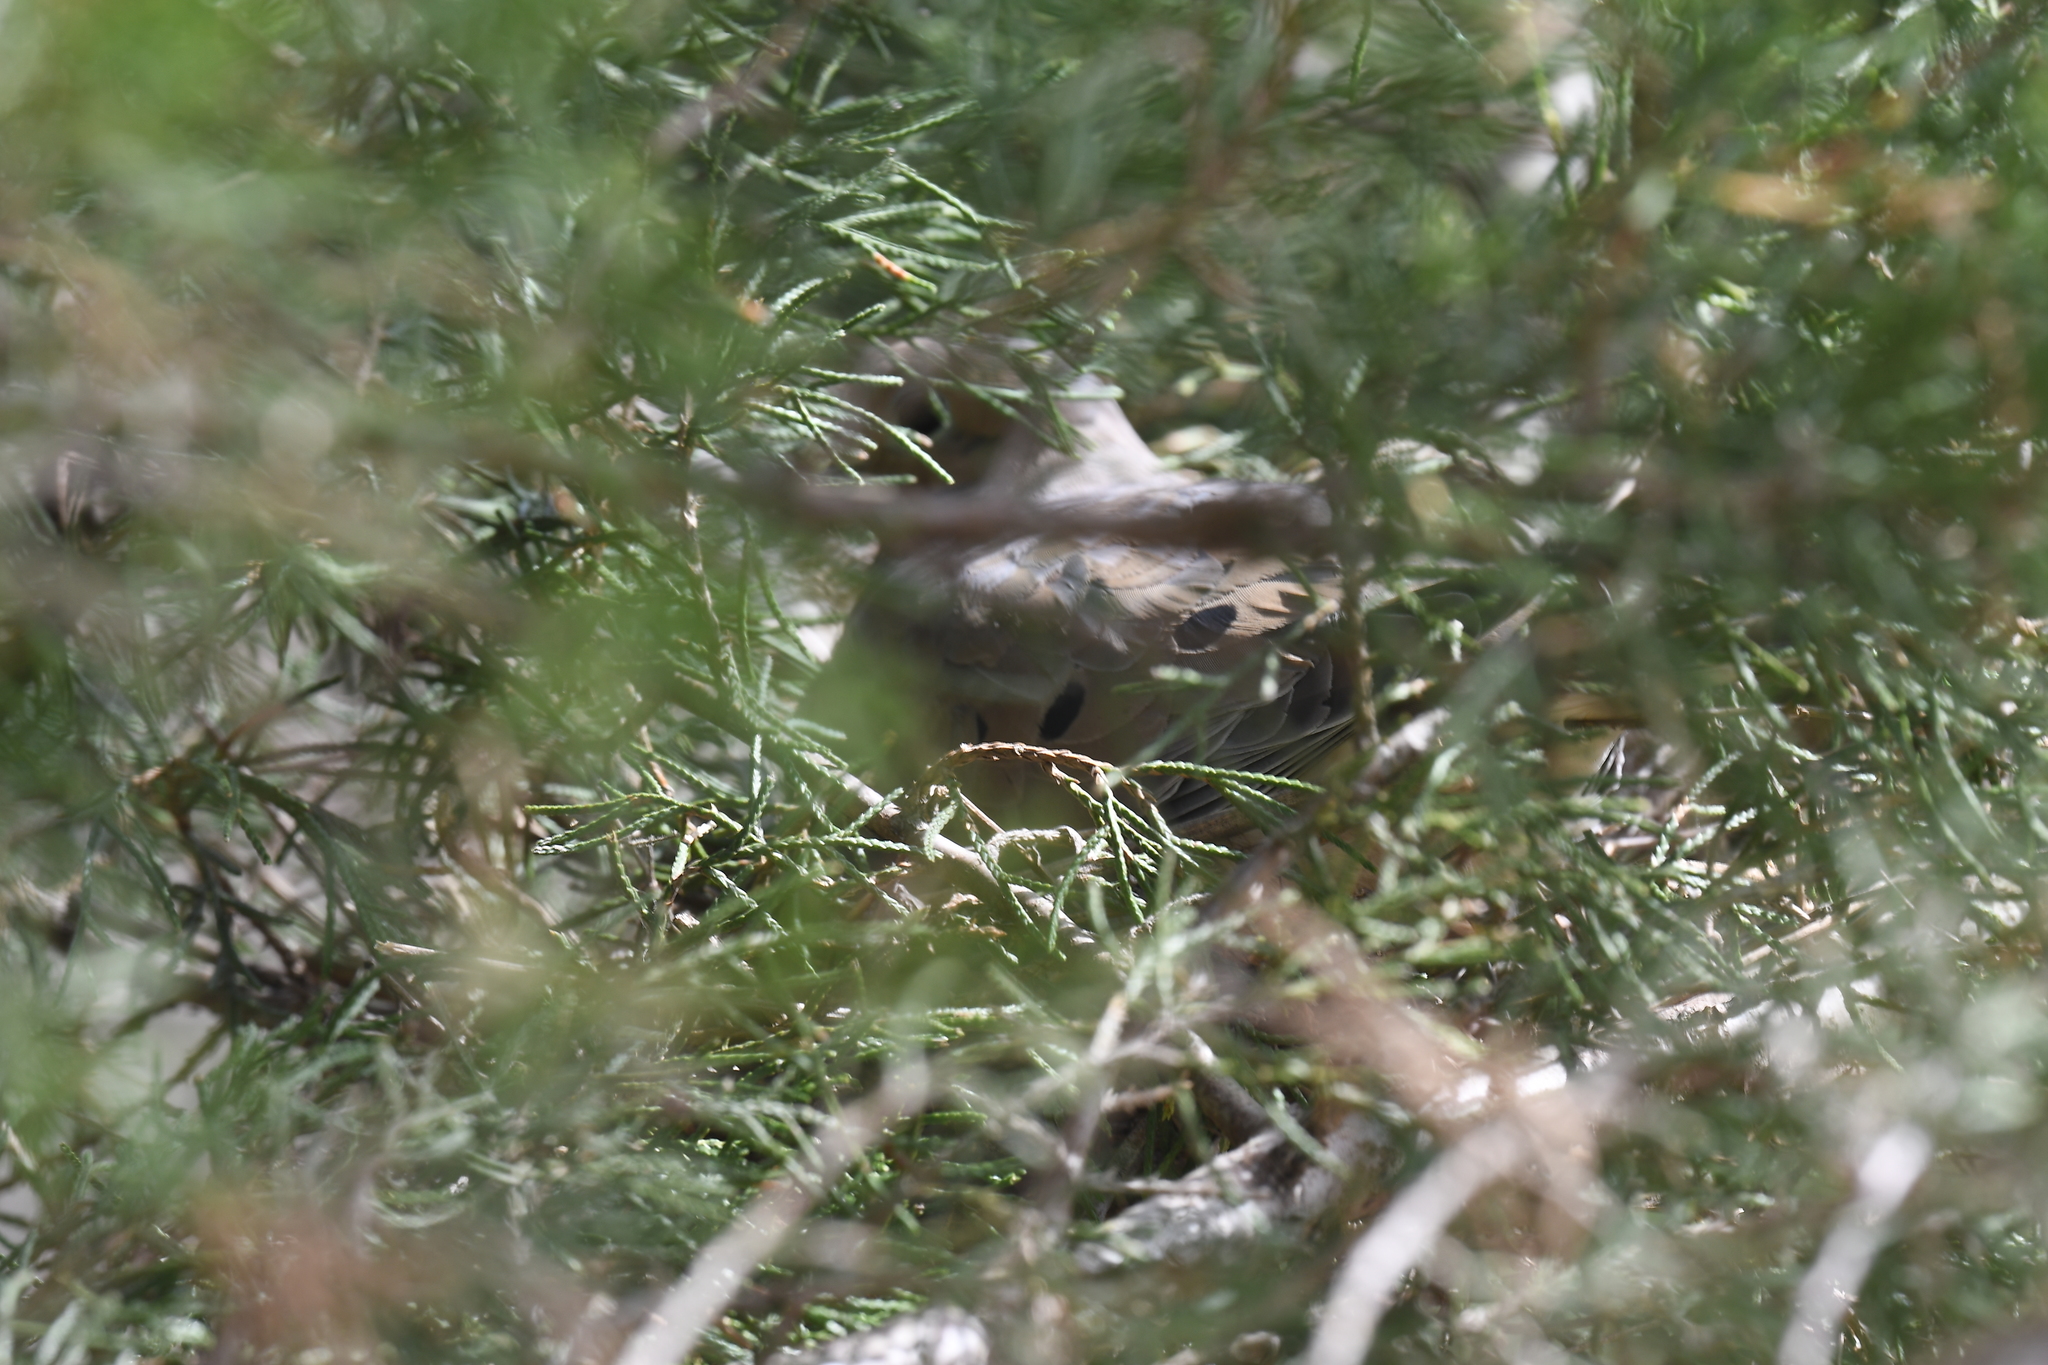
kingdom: Animalia
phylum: Chordata
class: Aves
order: Columbiformes
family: Columbidae
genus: Zenaida
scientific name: Zenaida macroura
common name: Mourning dove
